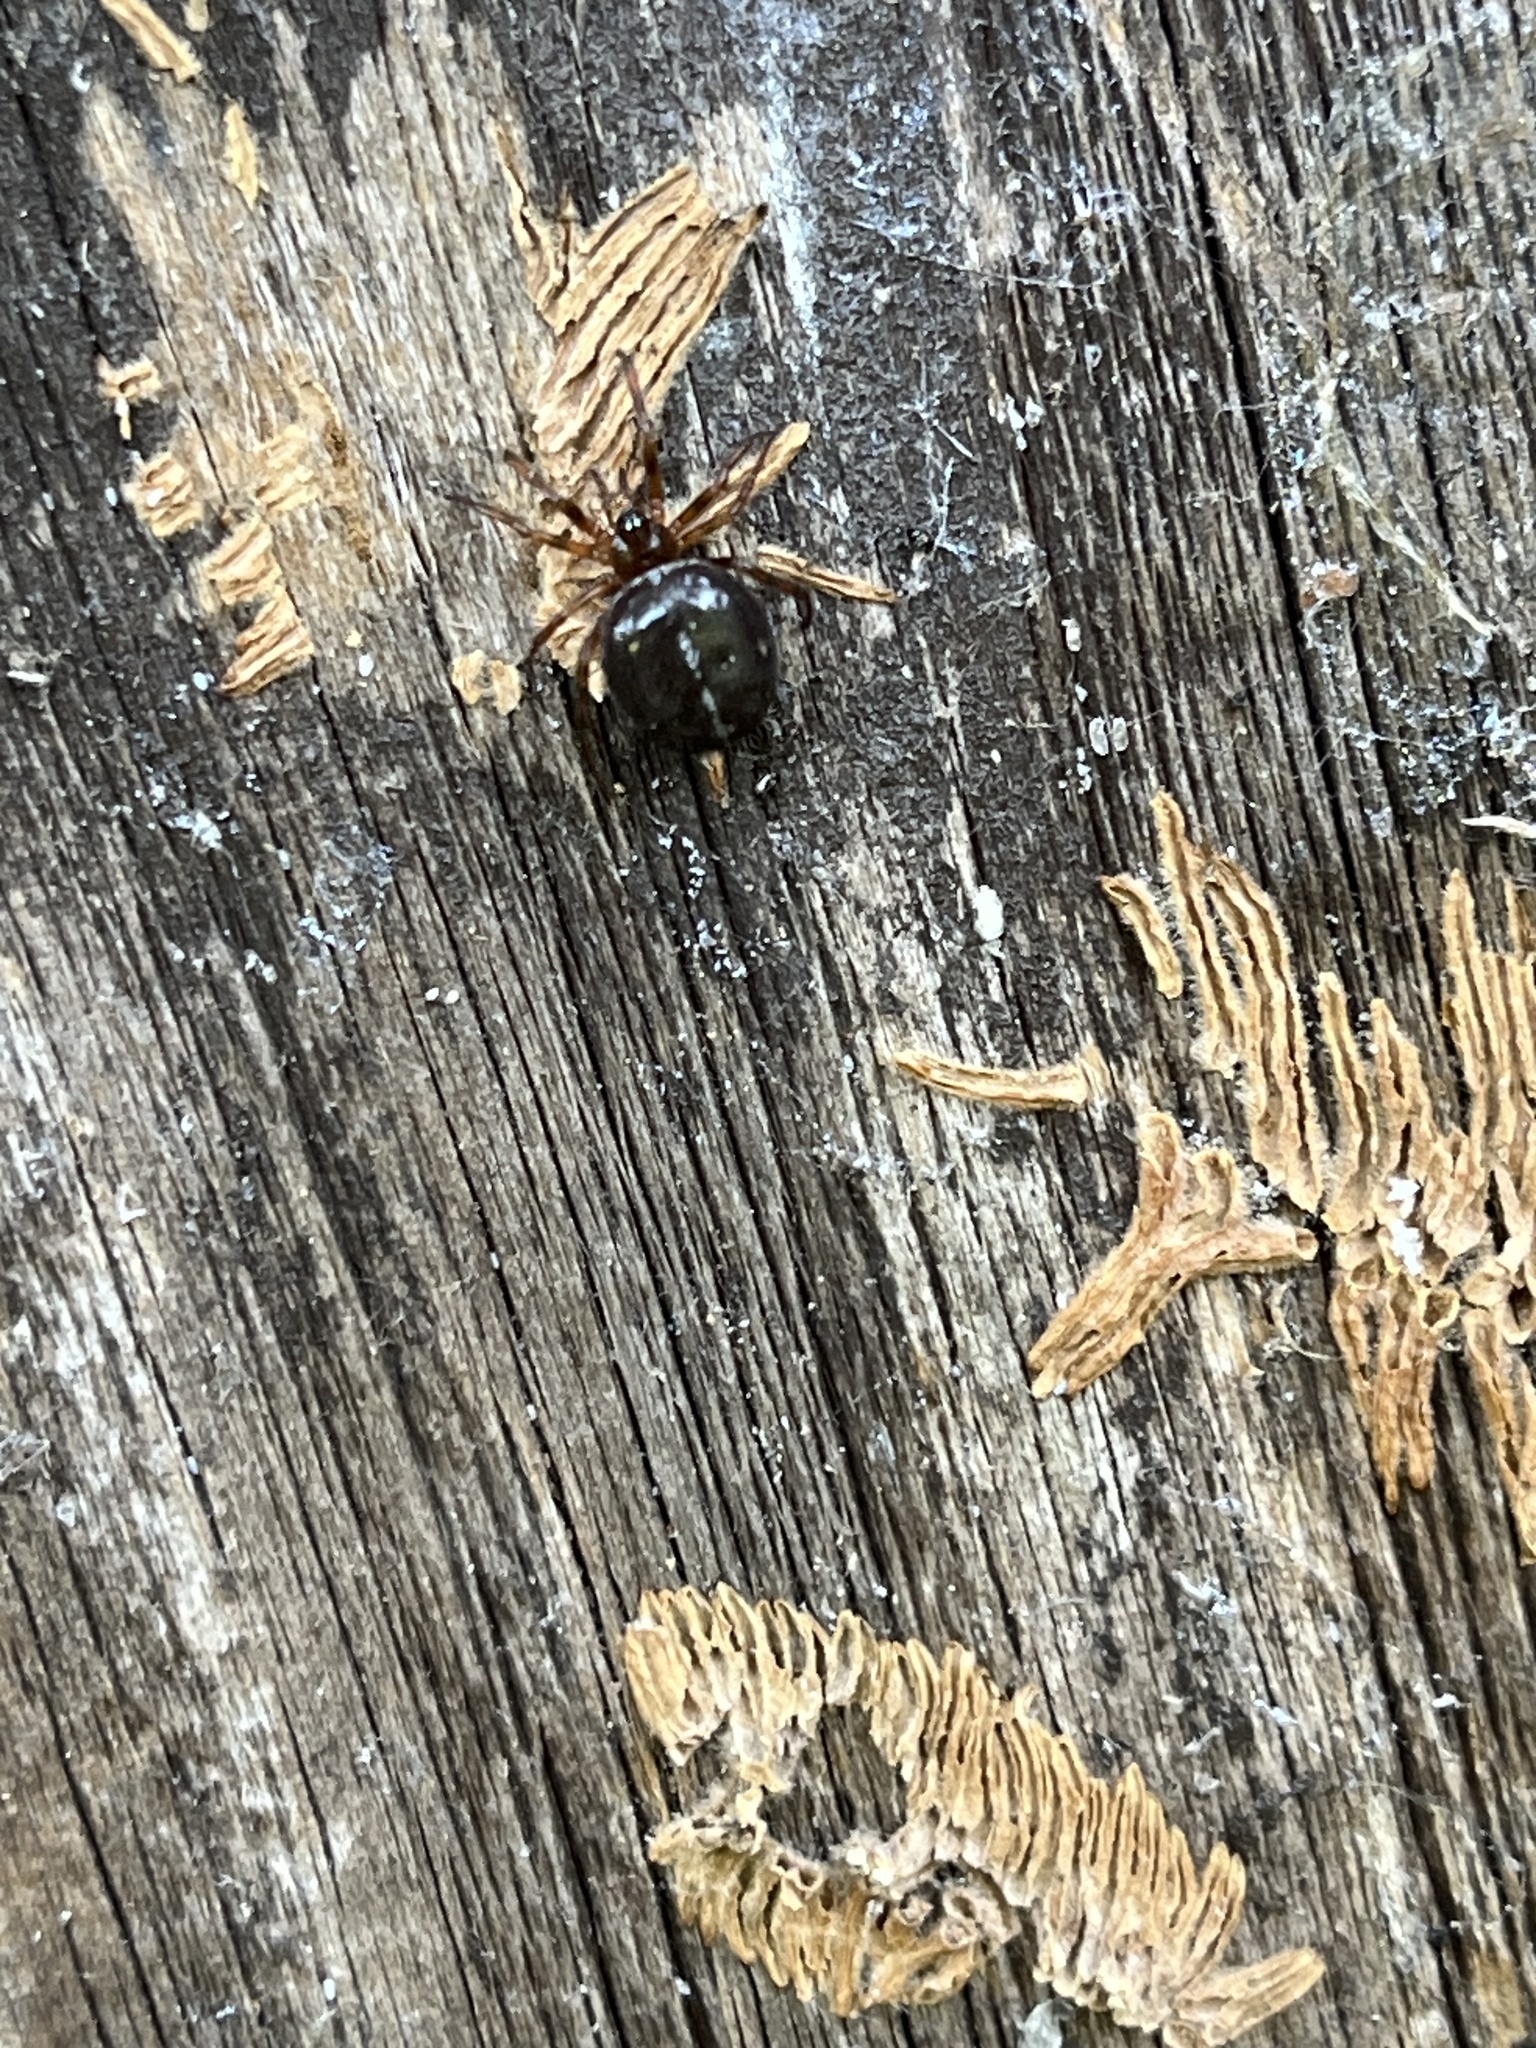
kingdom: Animalia
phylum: Arthropoda
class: Arachnida
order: Araneae
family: Theridiidae
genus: Steatoda
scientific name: Steatoda bipunctata
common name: False widow
